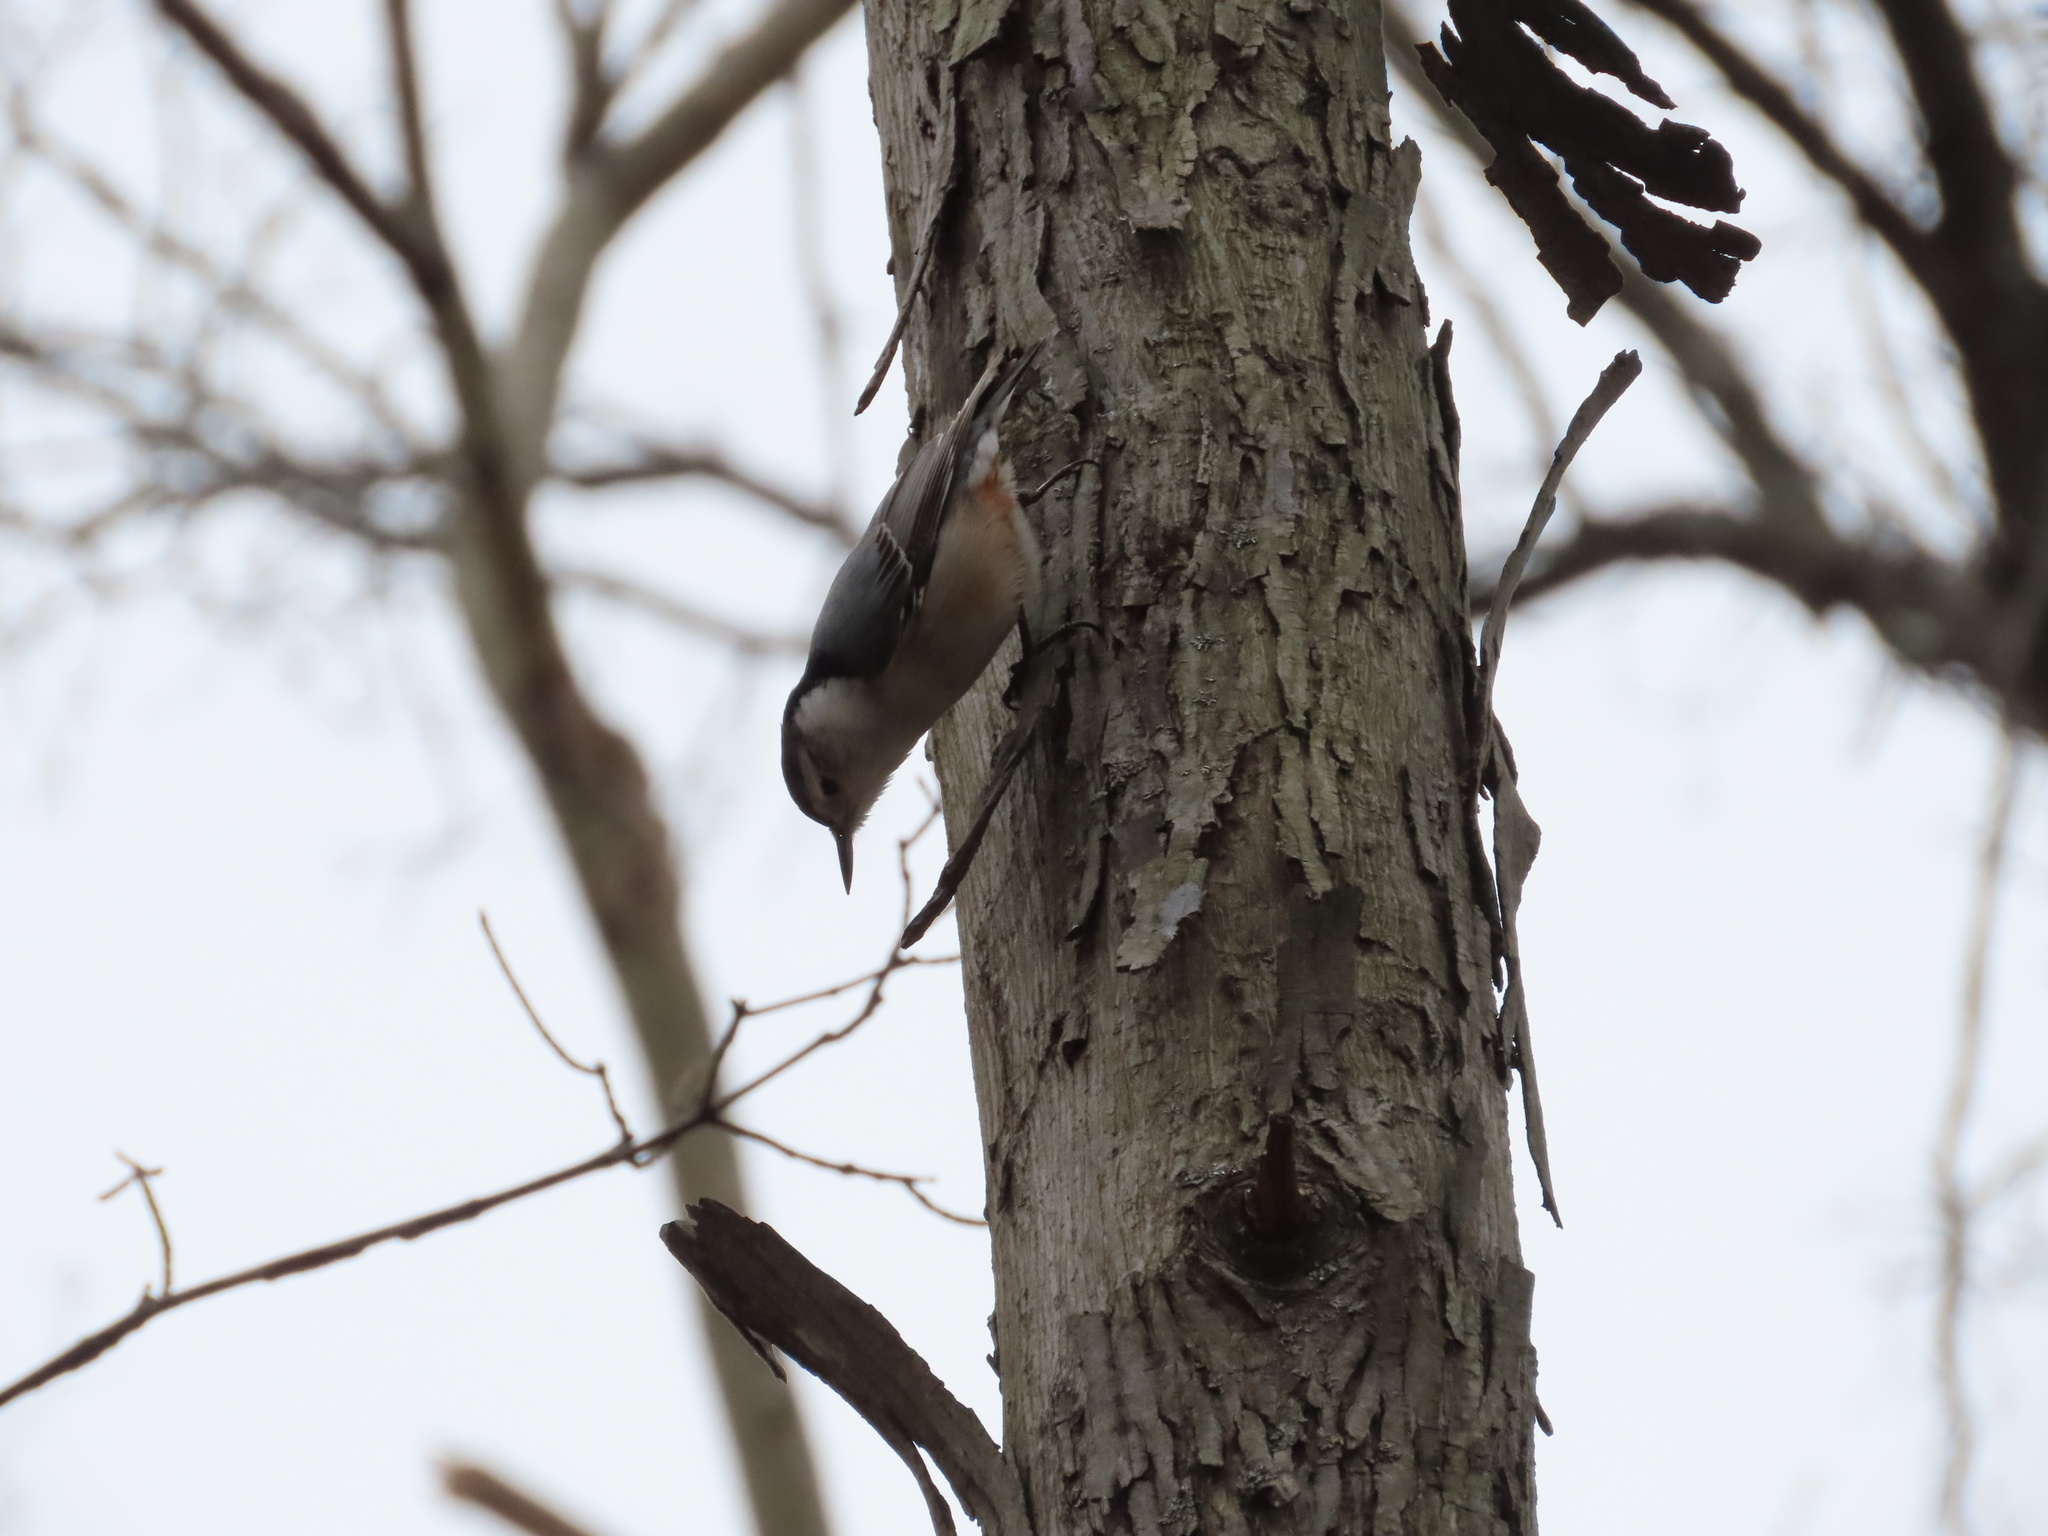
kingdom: Animalia
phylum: Chordata
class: Aves
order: Passeriformes
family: Sittidae
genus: Sitta
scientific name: Sitta carolinensis
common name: White-breasted nuthatch
